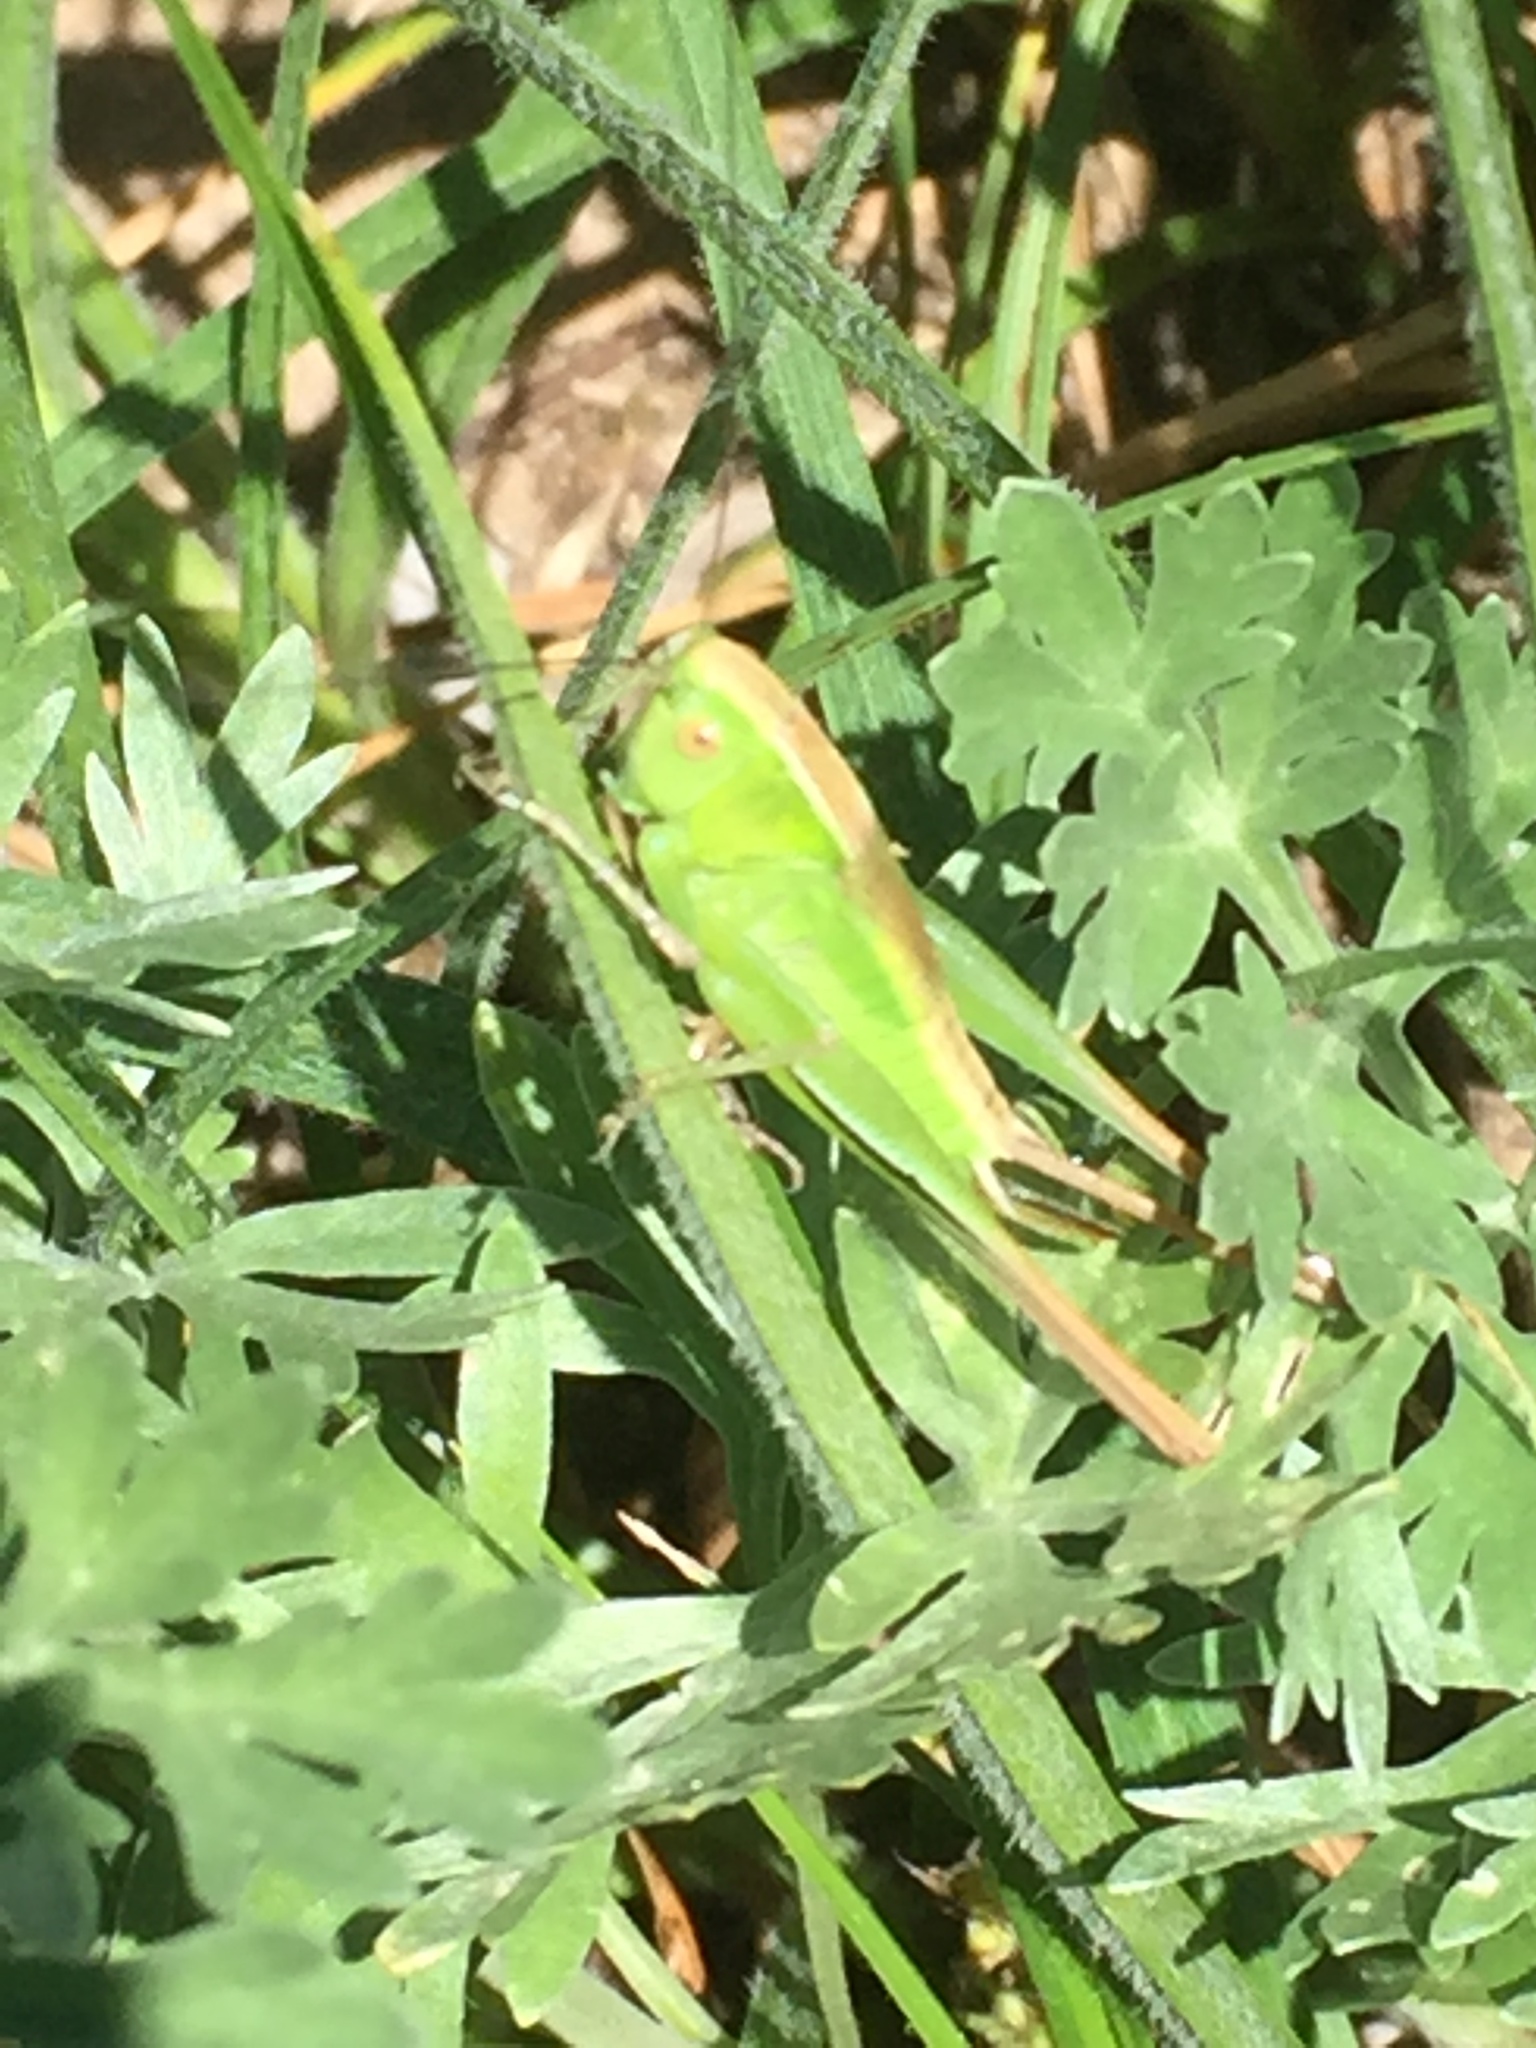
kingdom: Animalia
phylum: Arthropoda
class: Insecta
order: Orthoptera
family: Tettigoniidae
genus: Bicolorana
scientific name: Bicolorana bicolor
